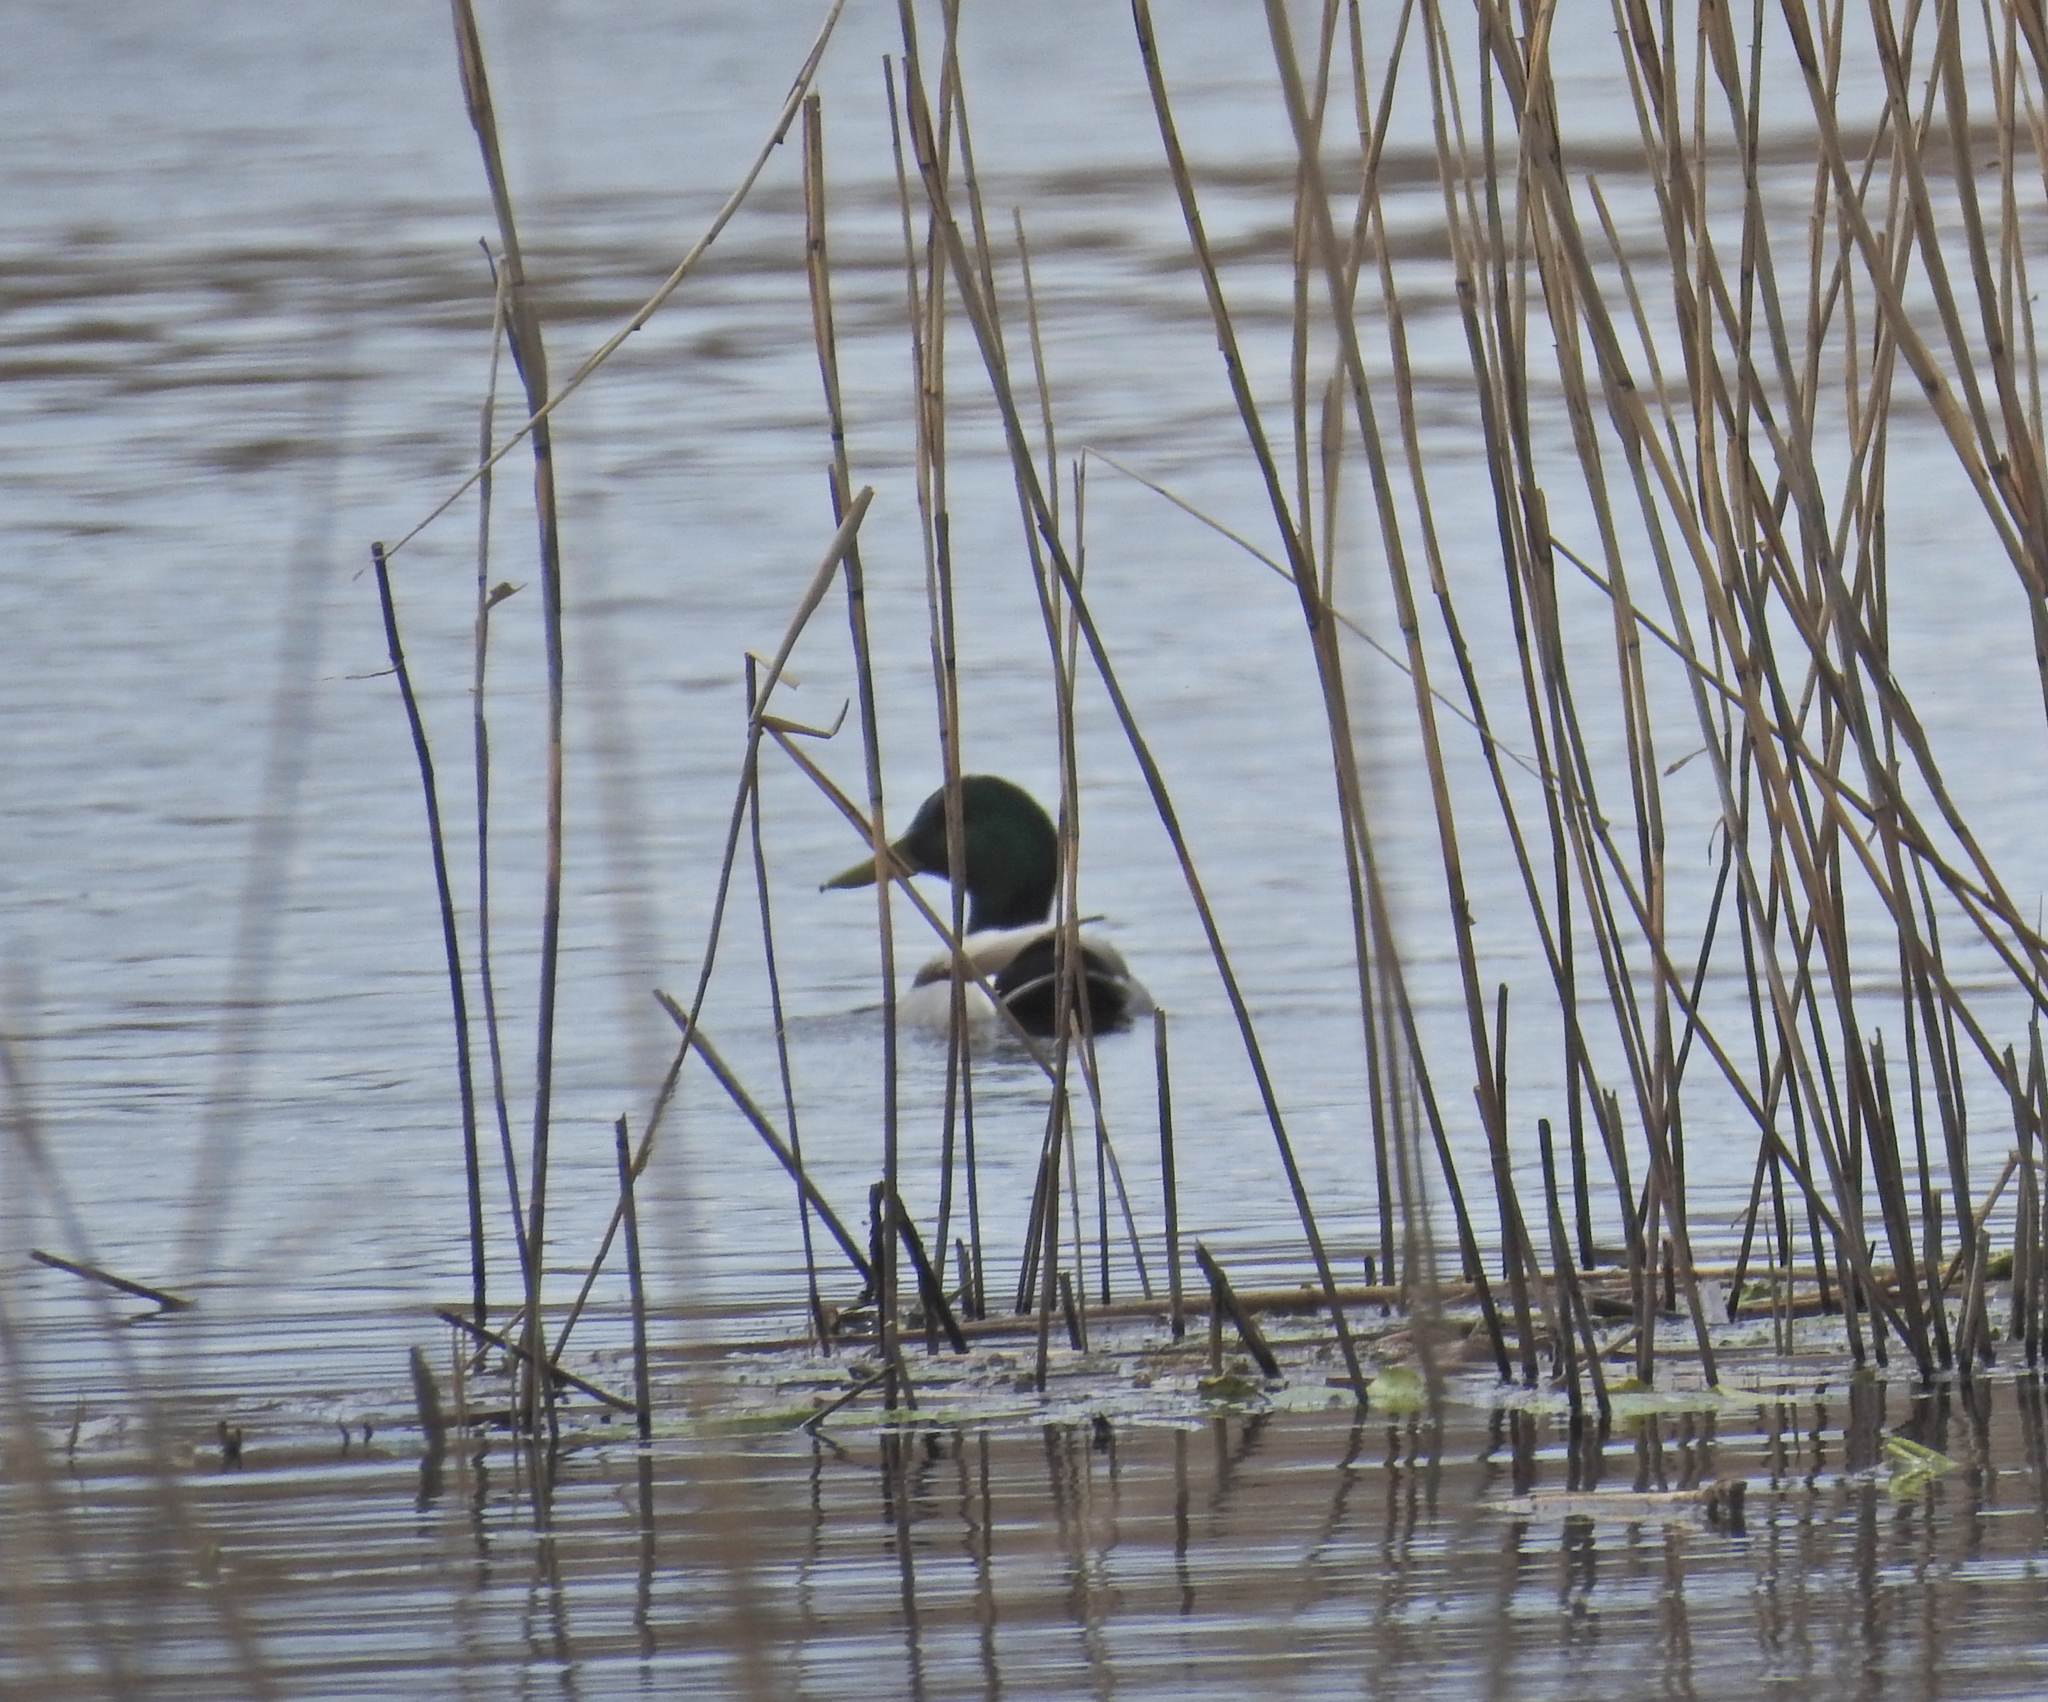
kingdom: Animalia
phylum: Chordata
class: Aves
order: Anseriformes
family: Anatidae
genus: Anas
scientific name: Anas platyrhynchos
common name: Mallard
